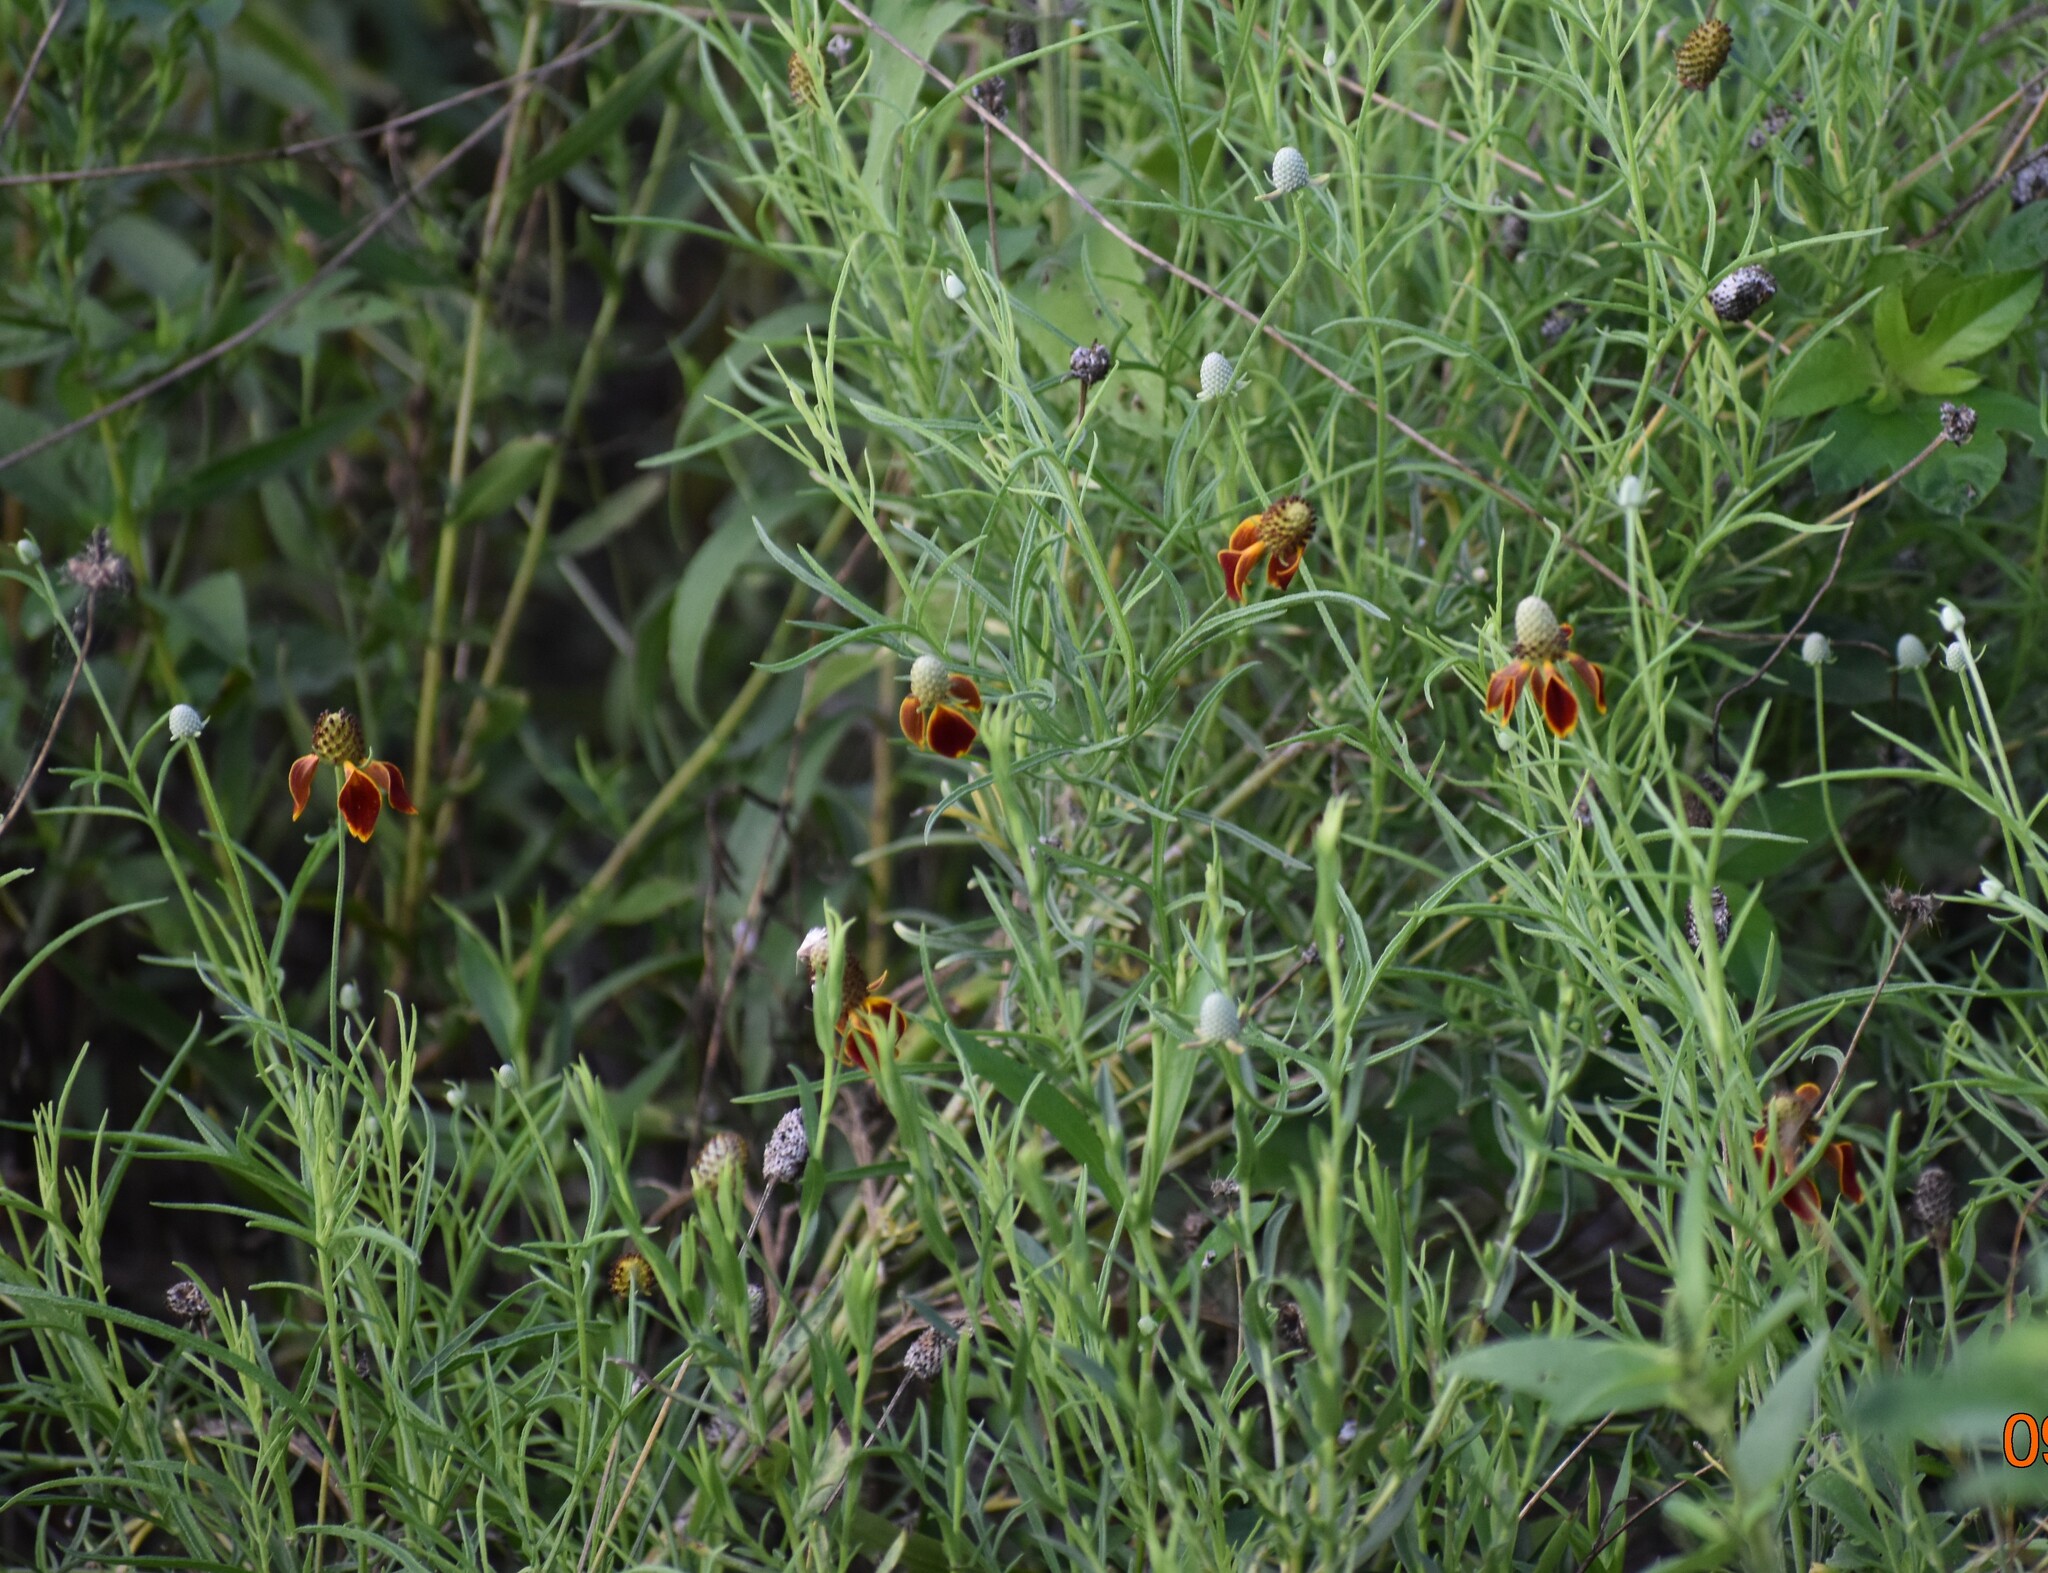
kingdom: Plantae
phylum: Tracheophyta
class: Magnoliopsida
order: Asterales
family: Asteraceae
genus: Ratibida
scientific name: Ratibida columnifera
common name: Prairie coneflower
